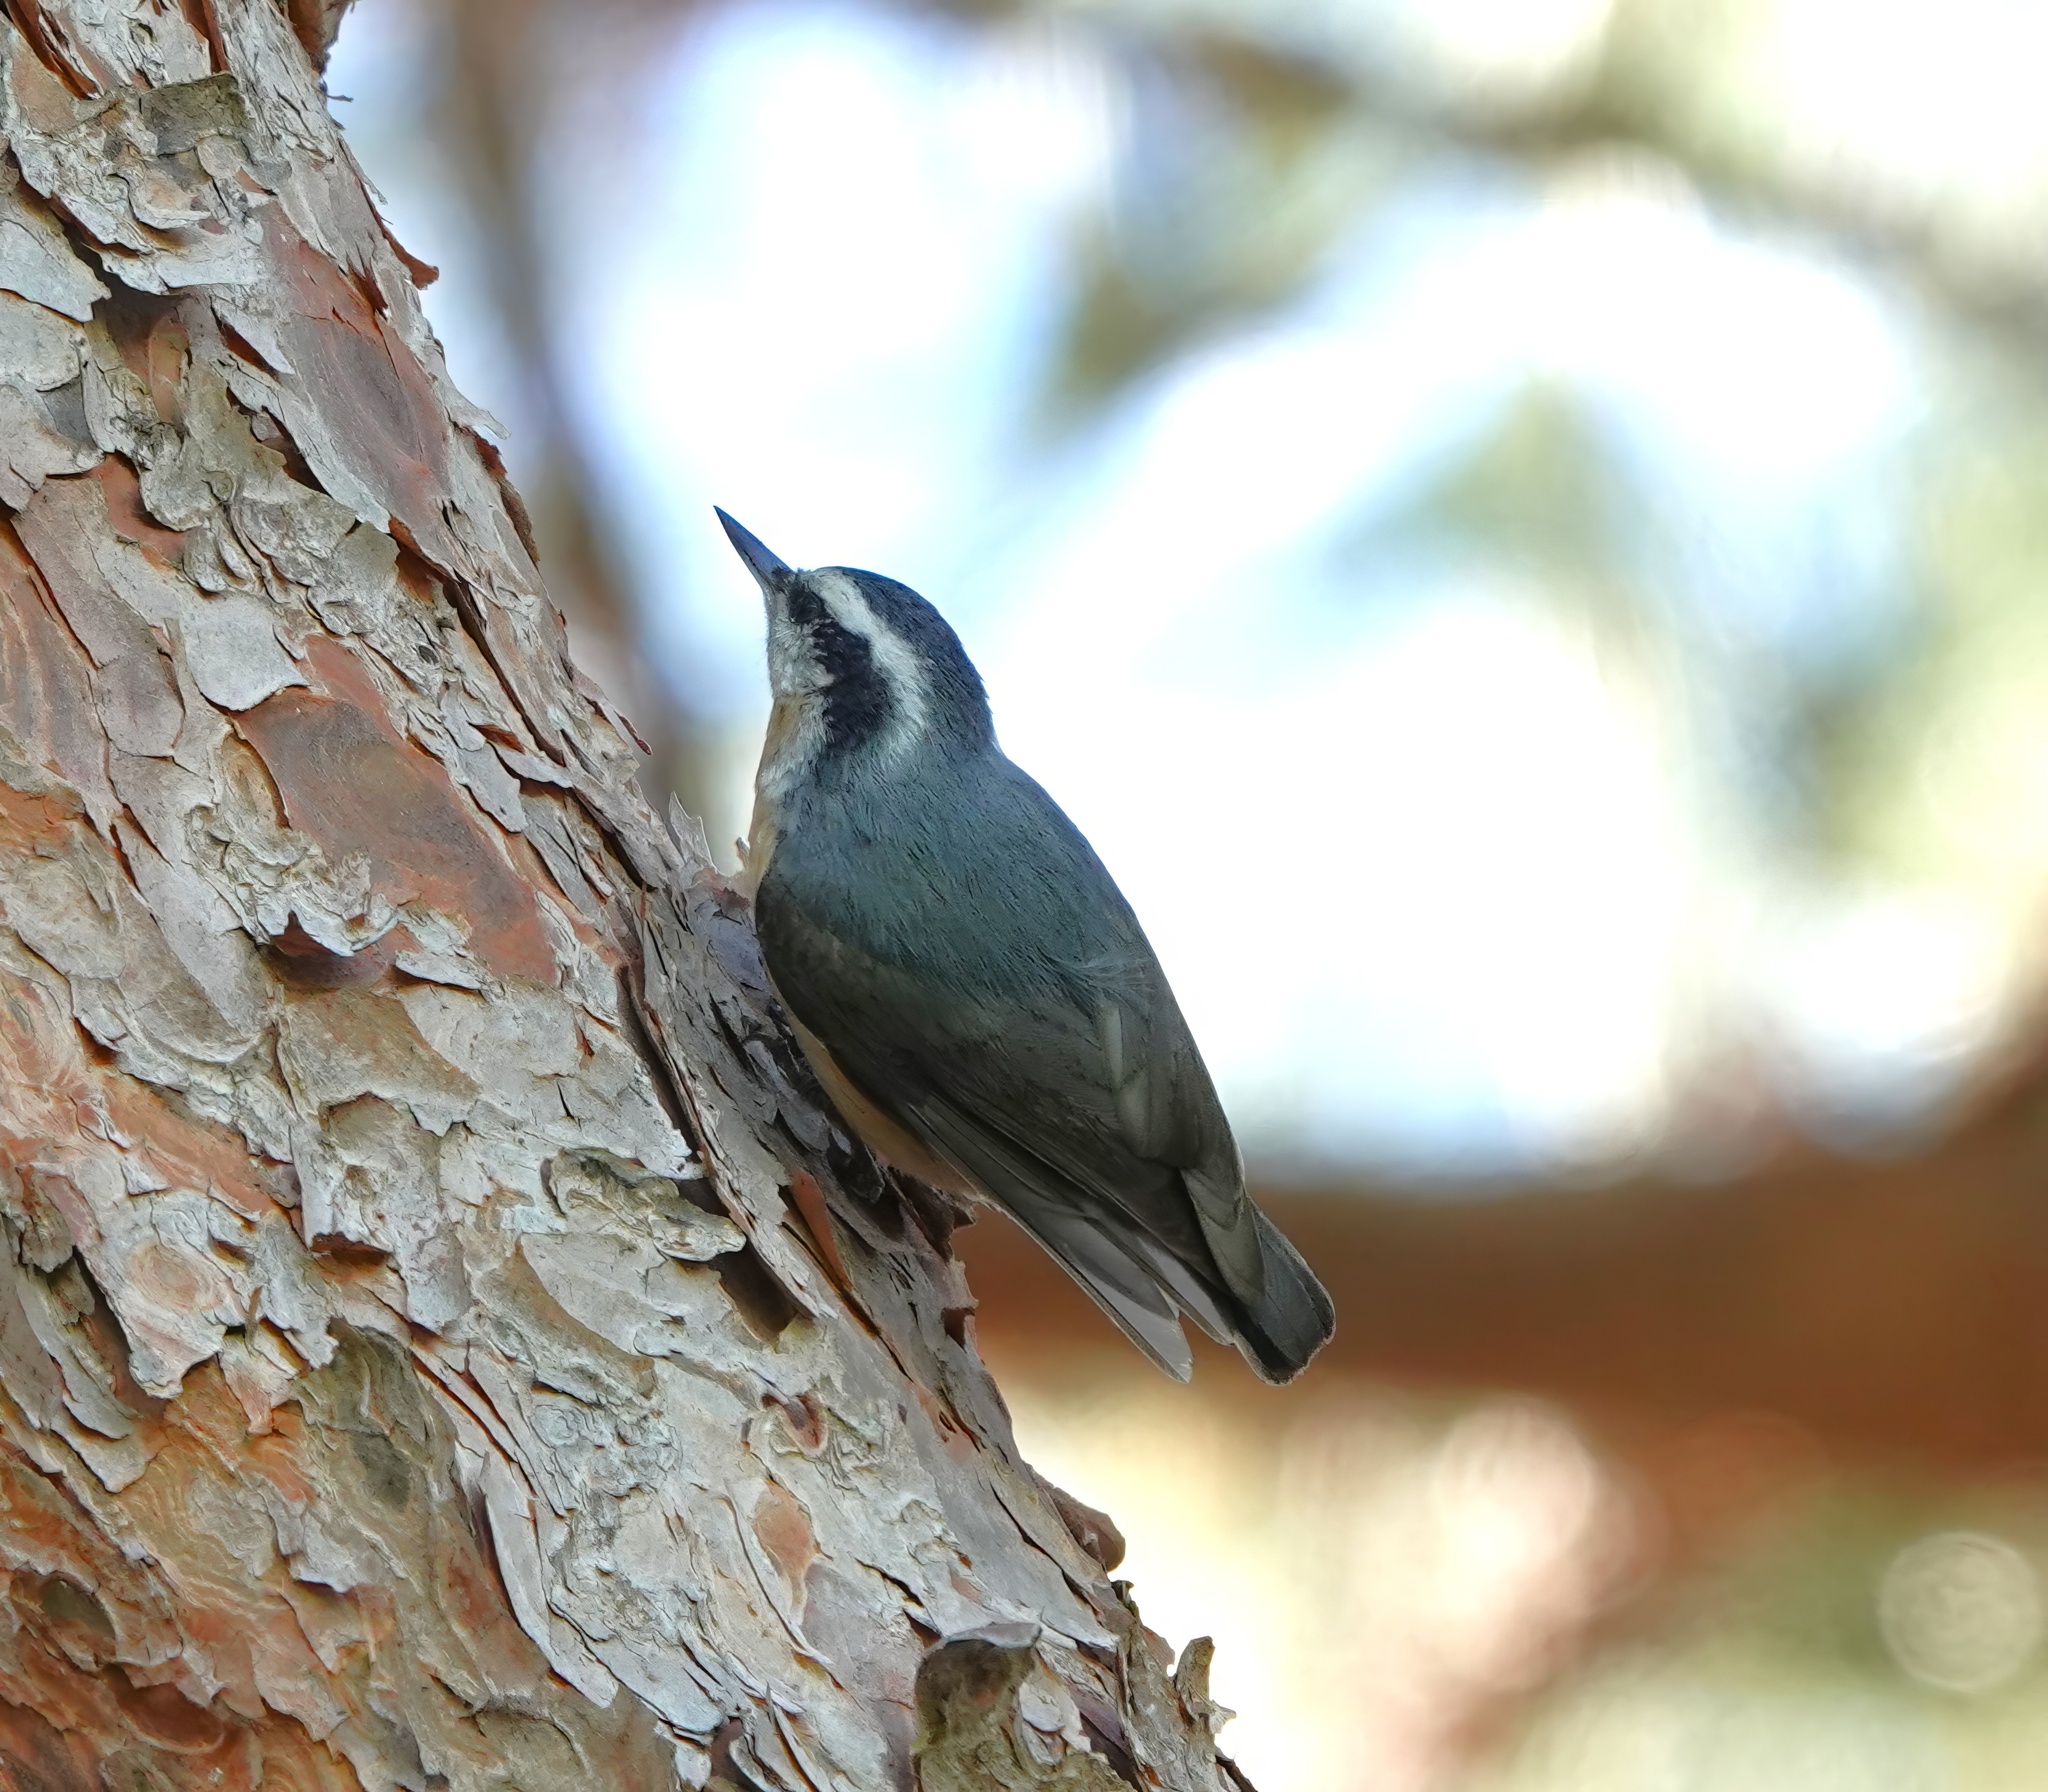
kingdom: Animalia
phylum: Chordata
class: Aves
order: Passeriformes
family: Sittidae
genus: Sitta
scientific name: Sitta canadensis
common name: Red-breasted nuthatch
